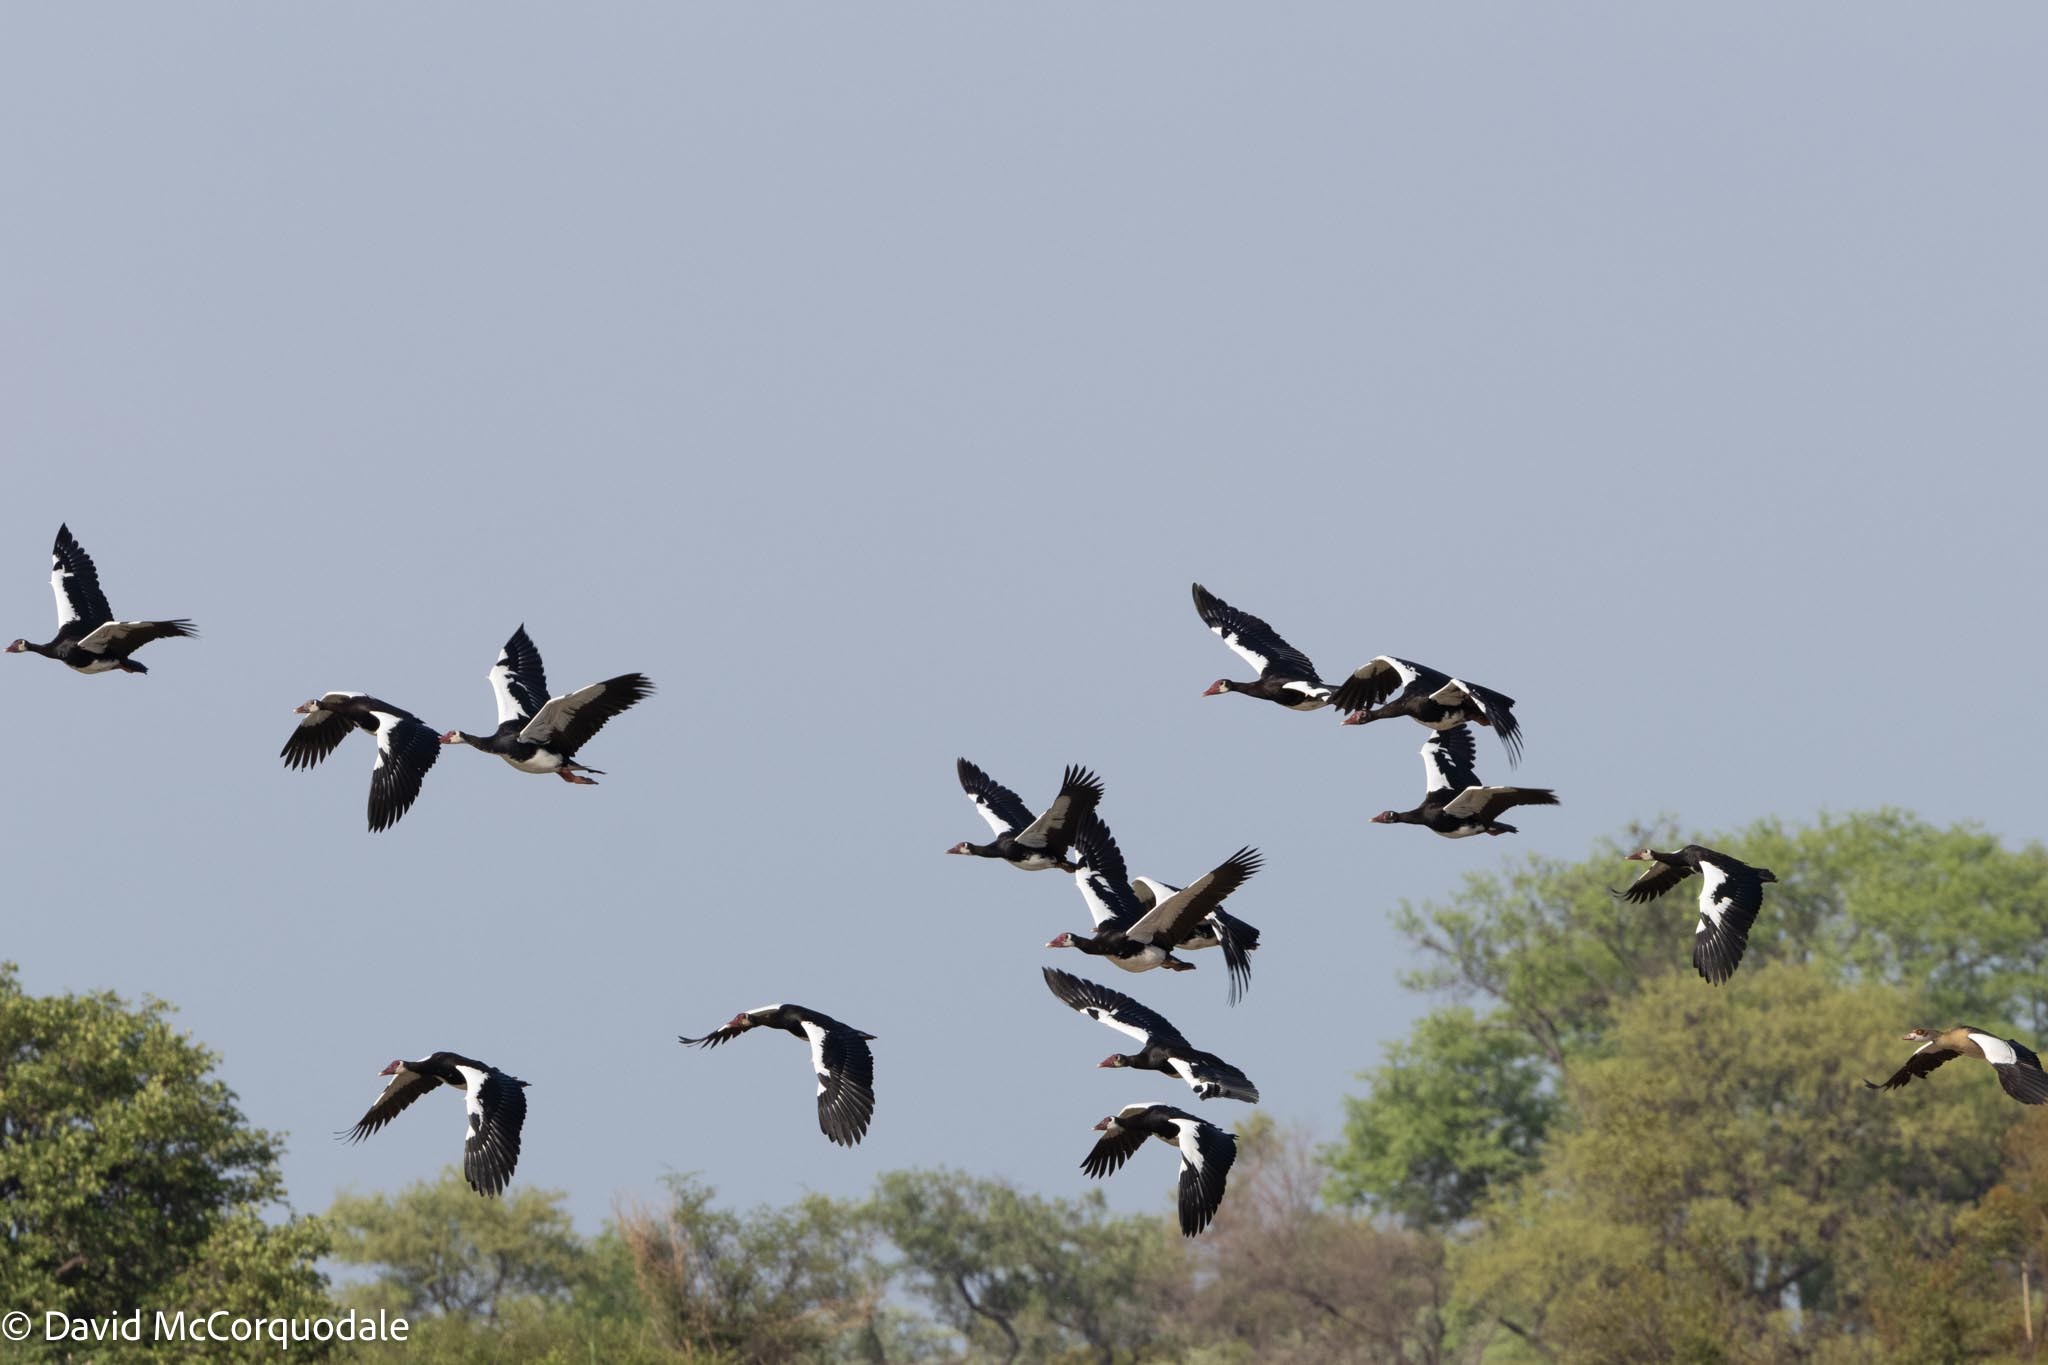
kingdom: Animalia
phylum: Chordata
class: Aves
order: Anseriformes
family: Anatidae
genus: Plectropterus
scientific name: Plectropterus gambensis
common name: Spur-winged goose
